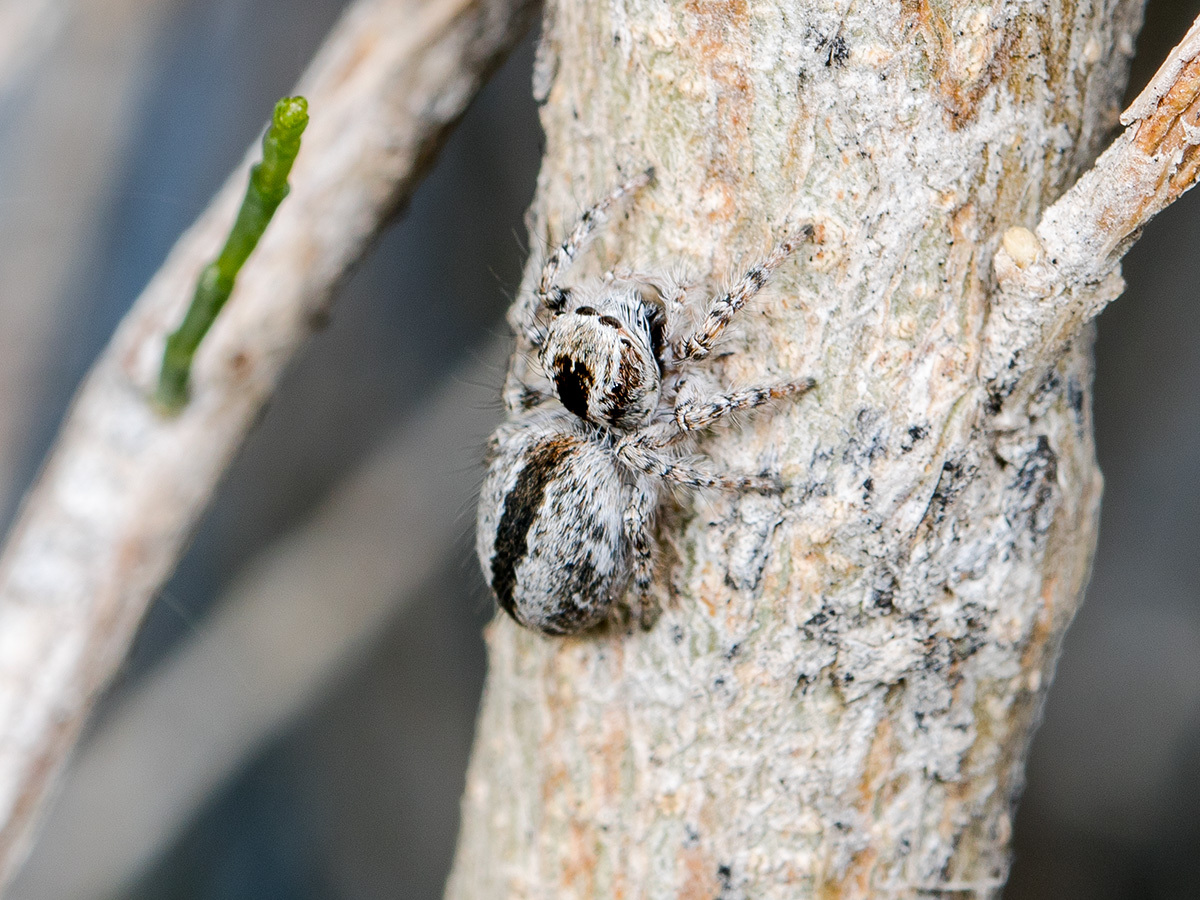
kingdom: Animalia
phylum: Arthropoda
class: Arachnida
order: Araneae
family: Salticidae
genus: Mogrus
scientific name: Mogrus antoninus
